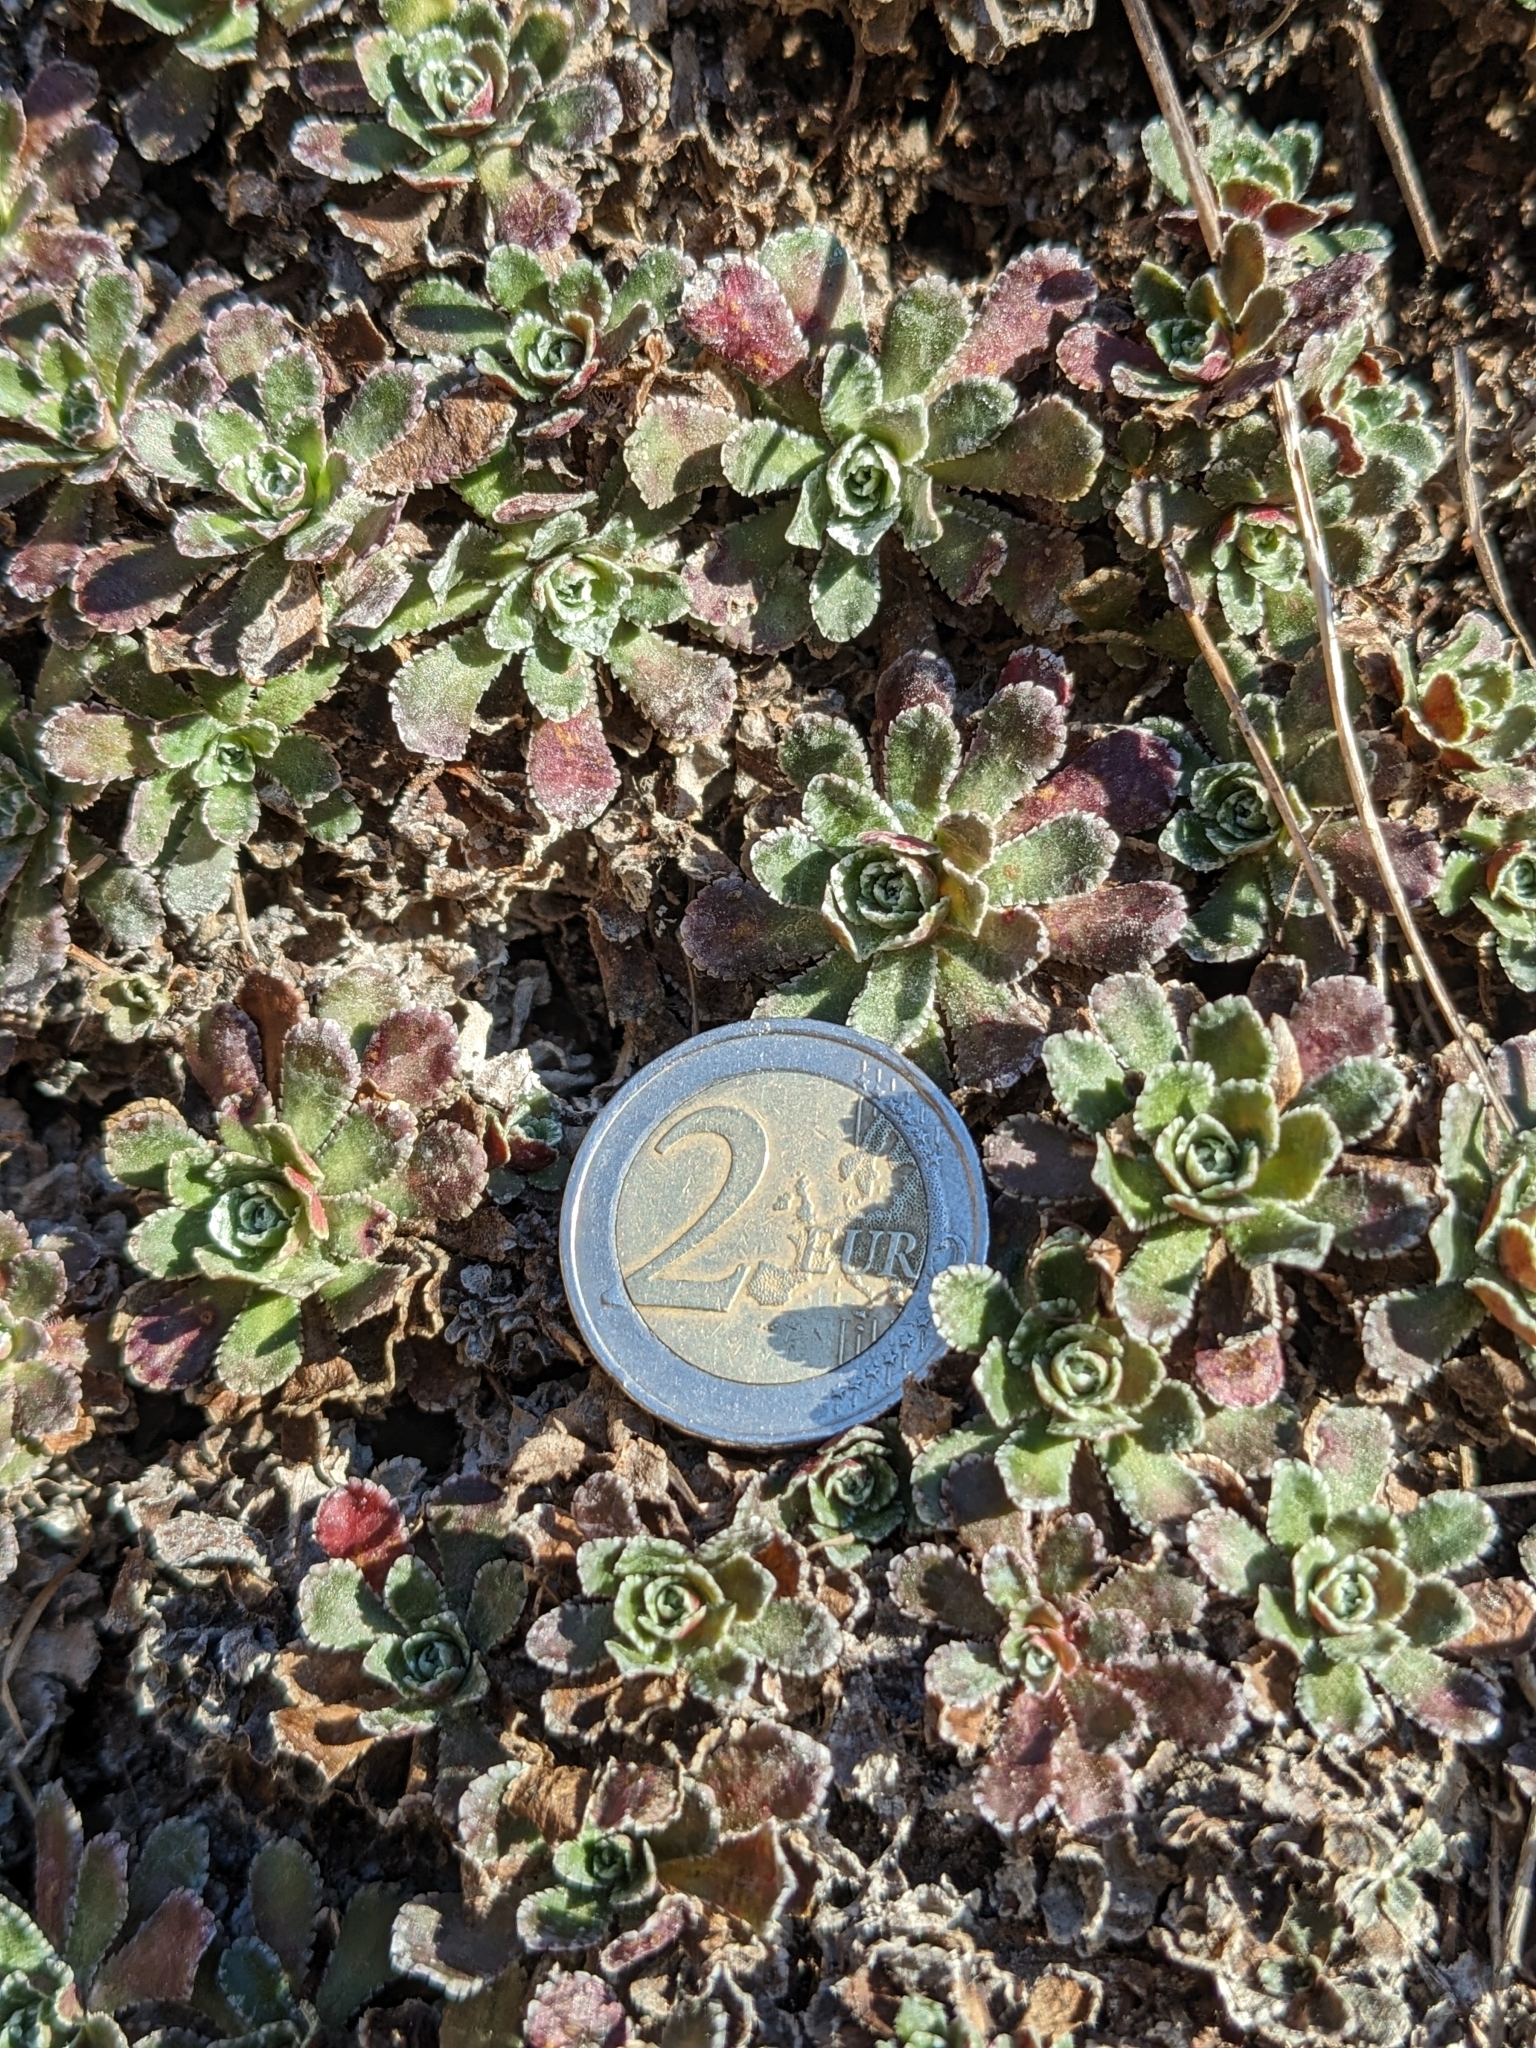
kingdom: Plantae
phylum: Tracheophyta
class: Magnoliopsida
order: Saxifragales
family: Saxifragaceae
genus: Saxifraga
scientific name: Saxifraga paniculata
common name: Livelong saxifrage
